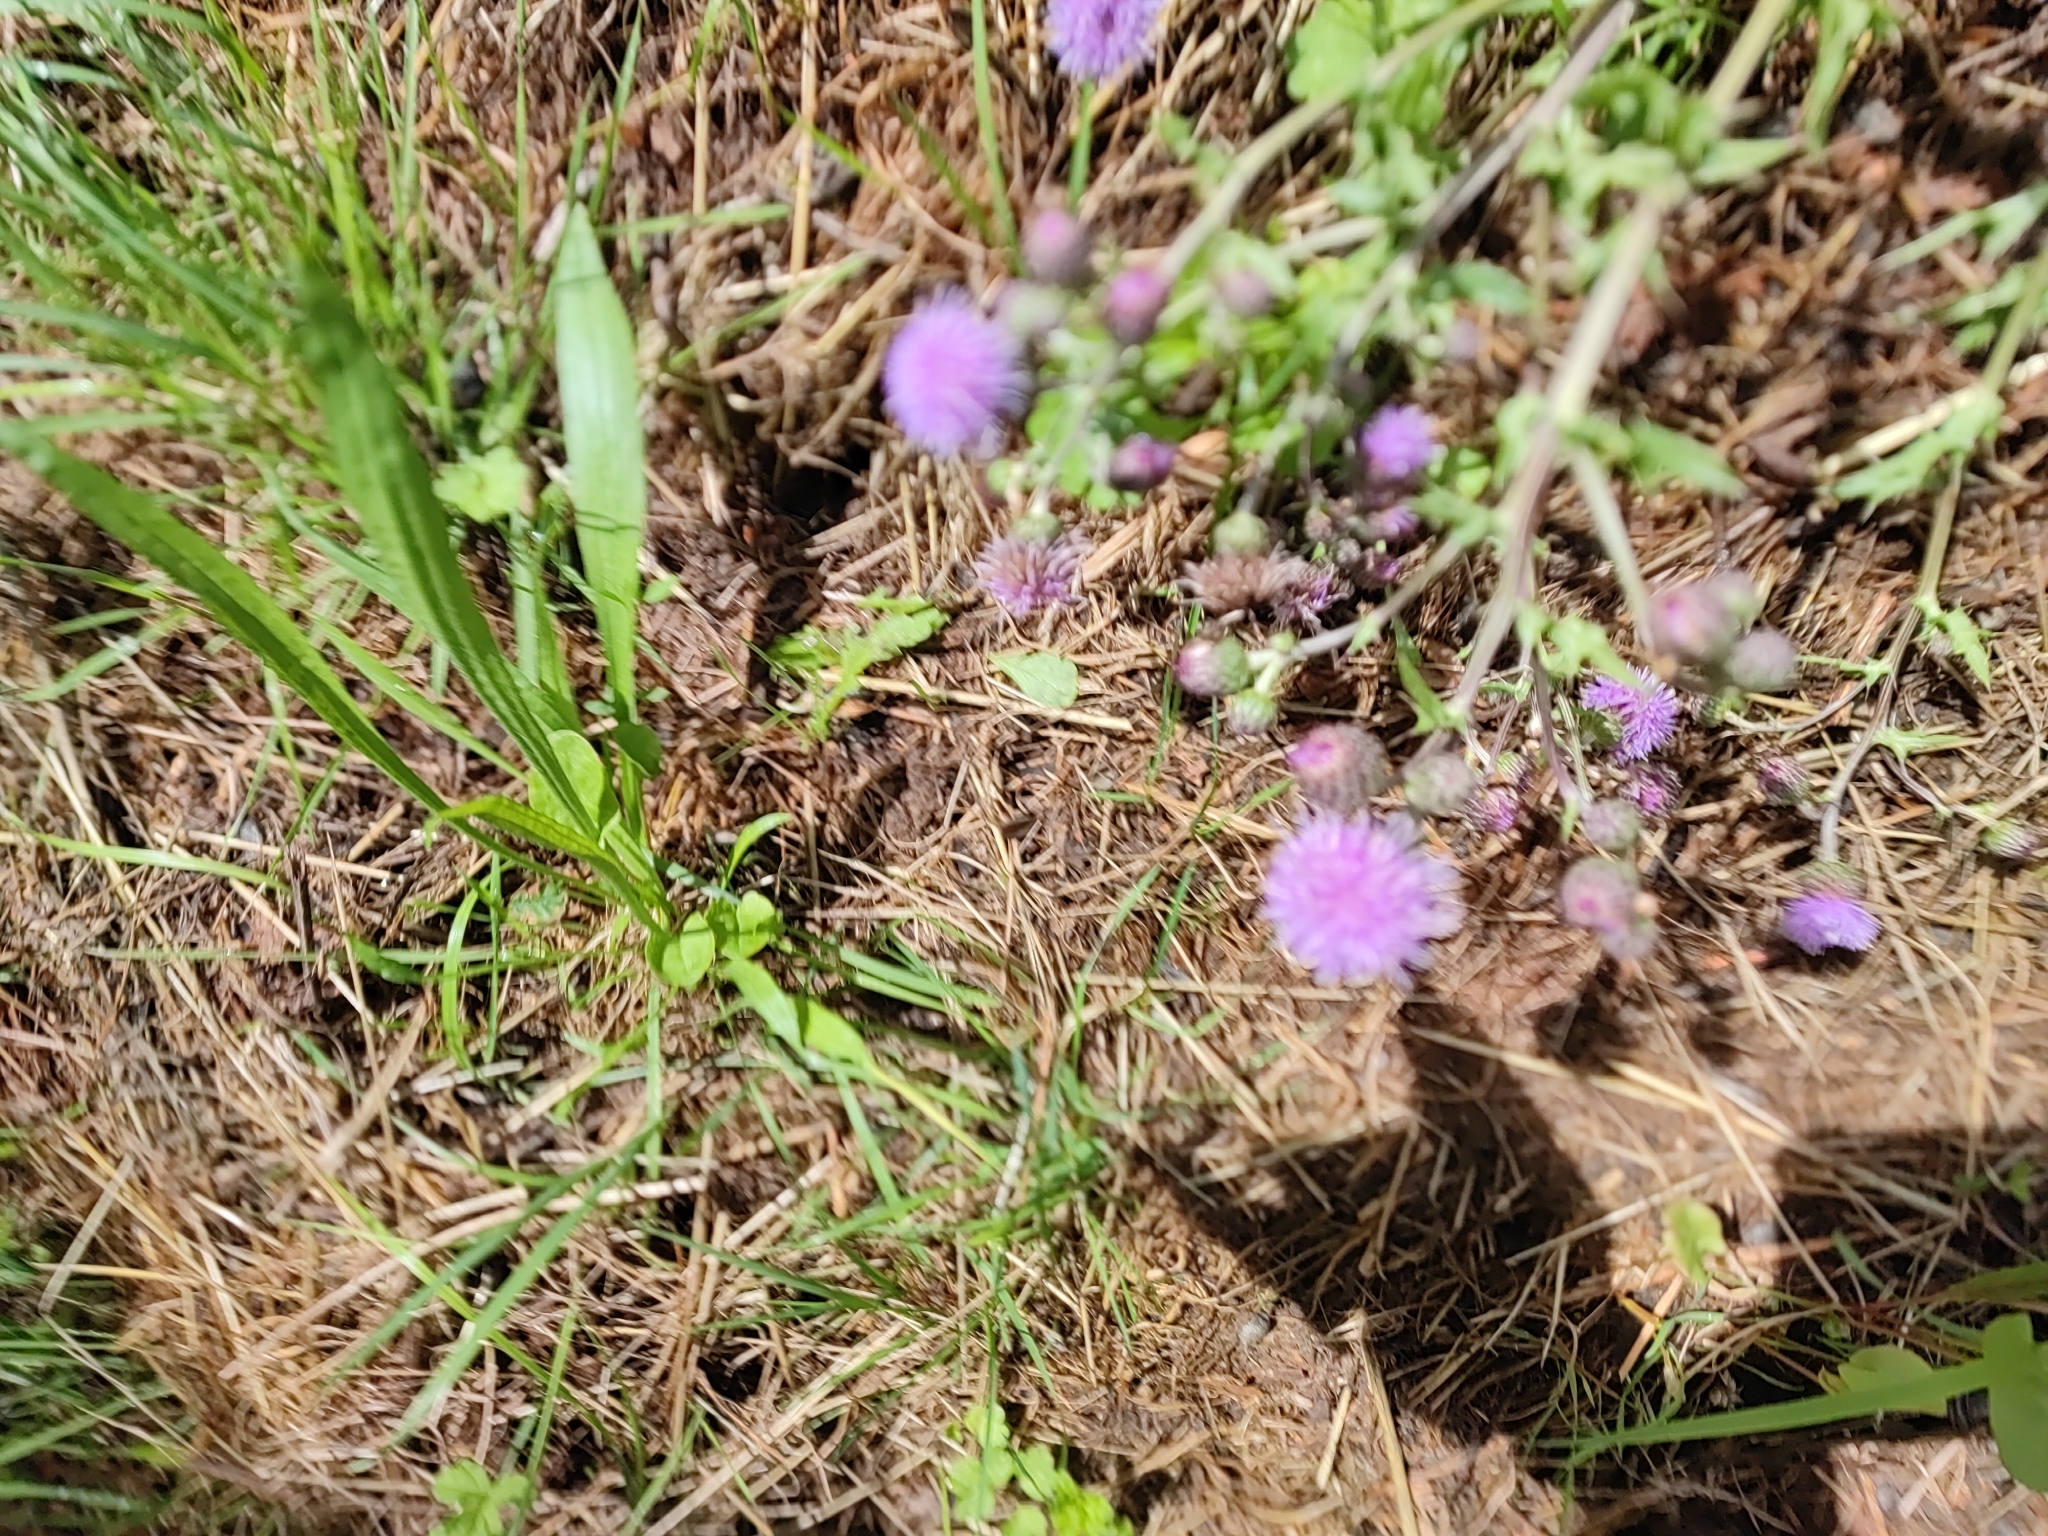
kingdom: Plantae
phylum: Tracheophyta
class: Magnoliopsida
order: Asterales
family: Asteraceae
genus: Cirsium
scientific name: Cirsium arvense
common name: Creeping thistle
